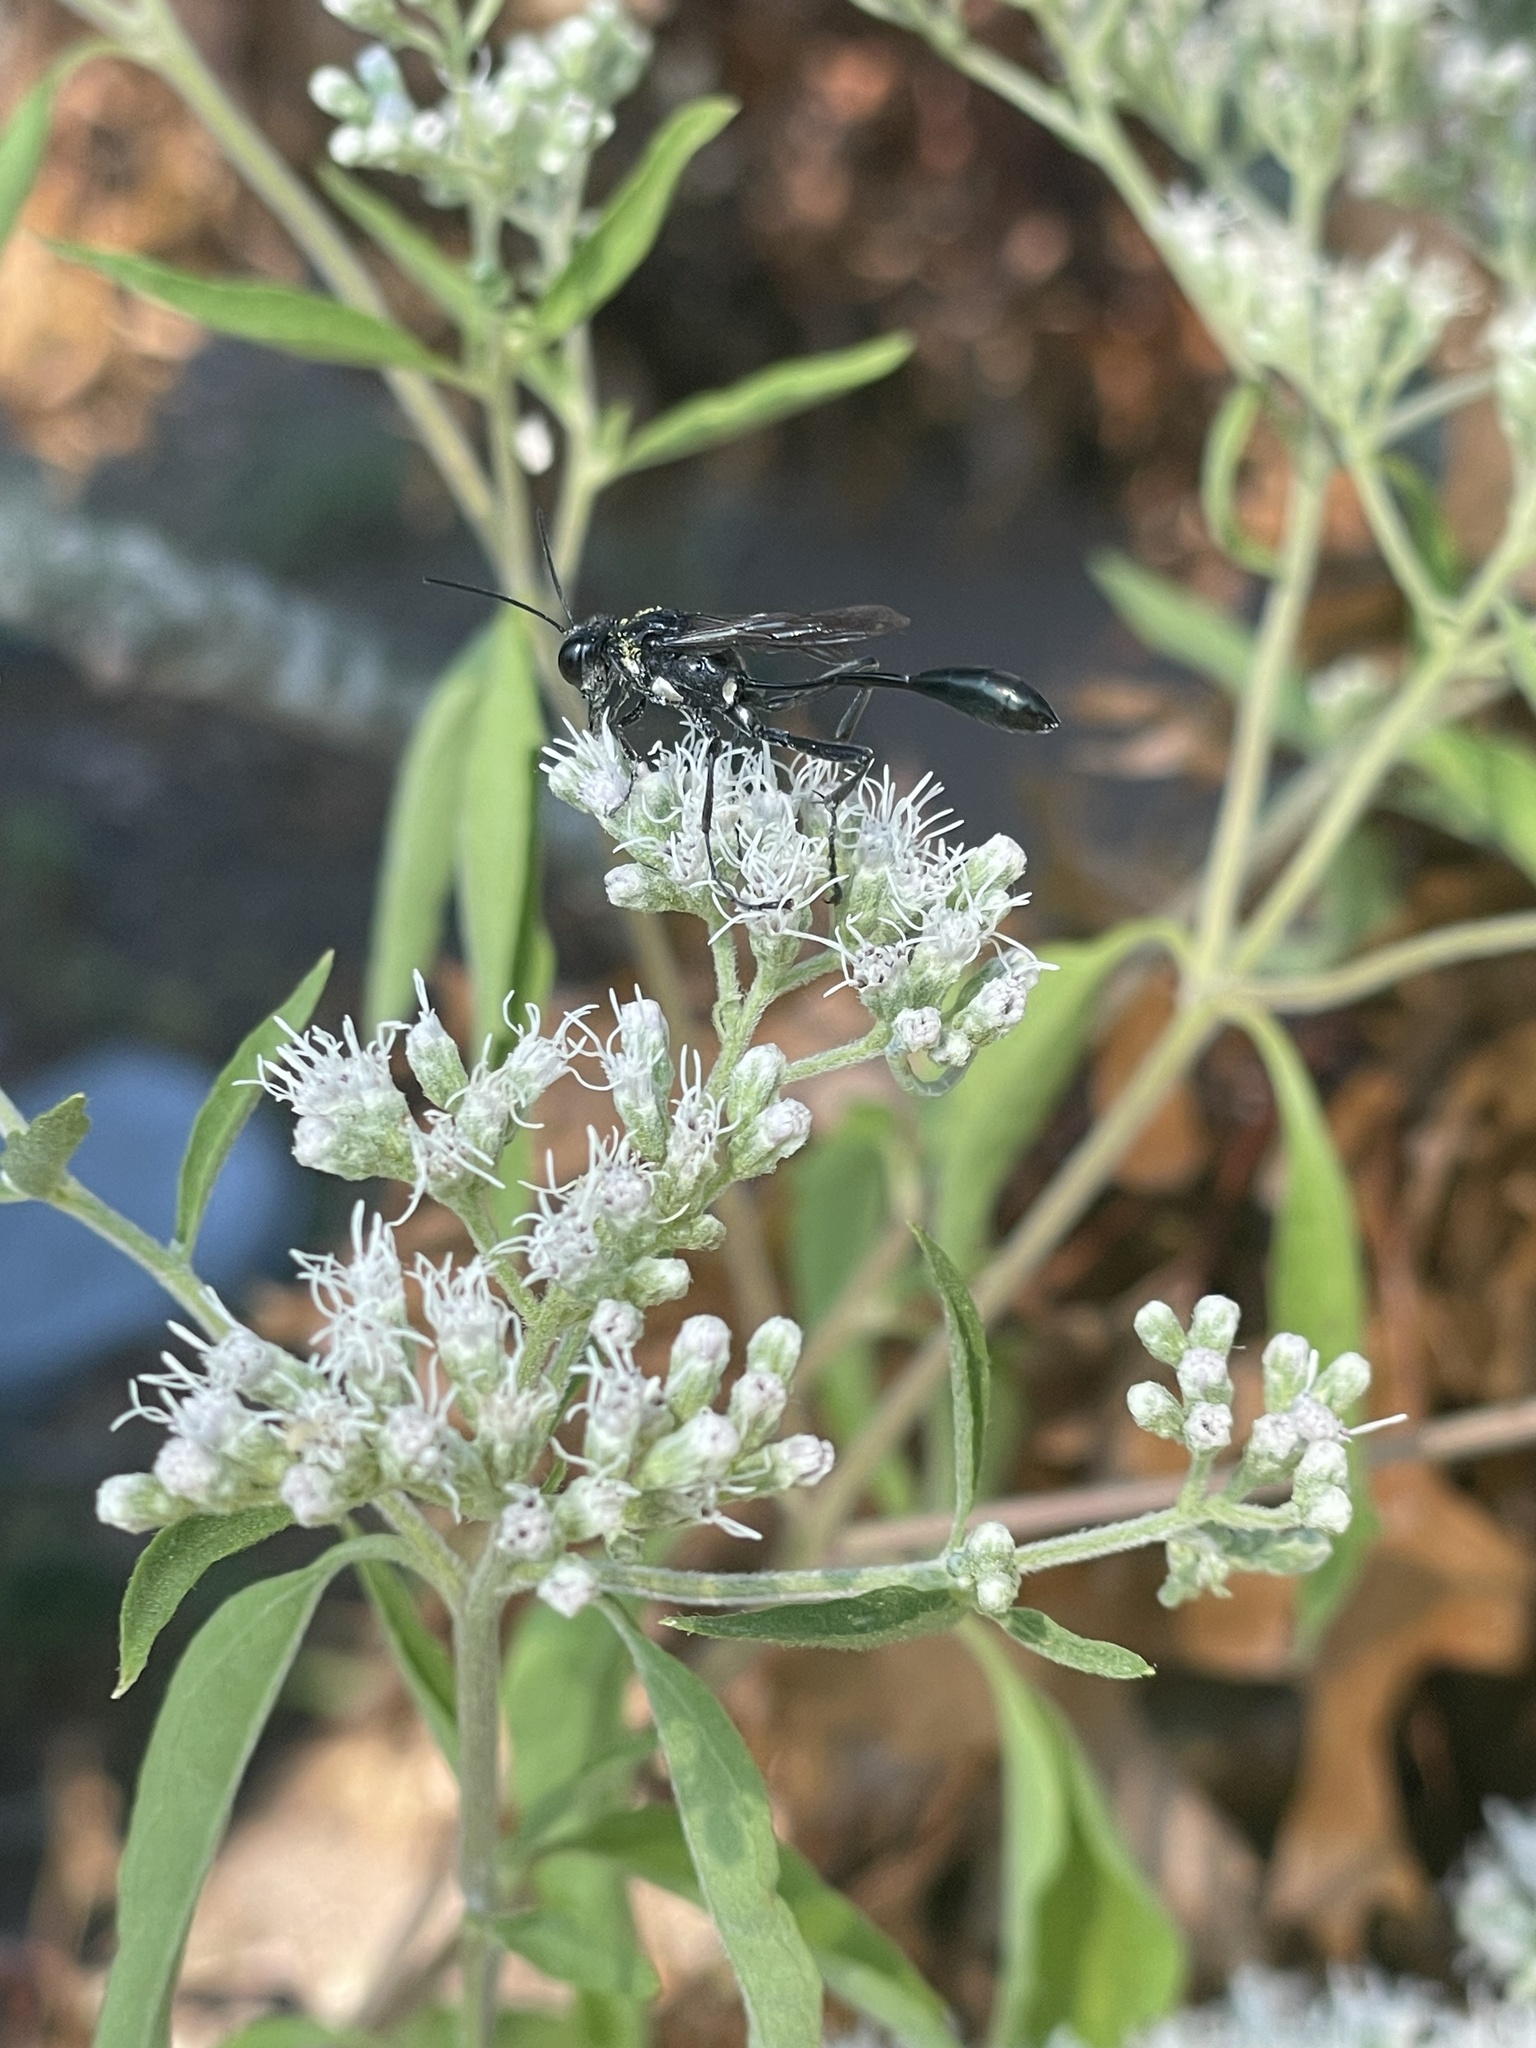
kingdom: Animalia
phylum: Arthropoda
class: Insecta
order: Hymenoptera
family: Sphecidae
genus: Eremnophila
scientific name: Eremnophila aureonotata
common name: Gold-marked thread-waisted wasp
